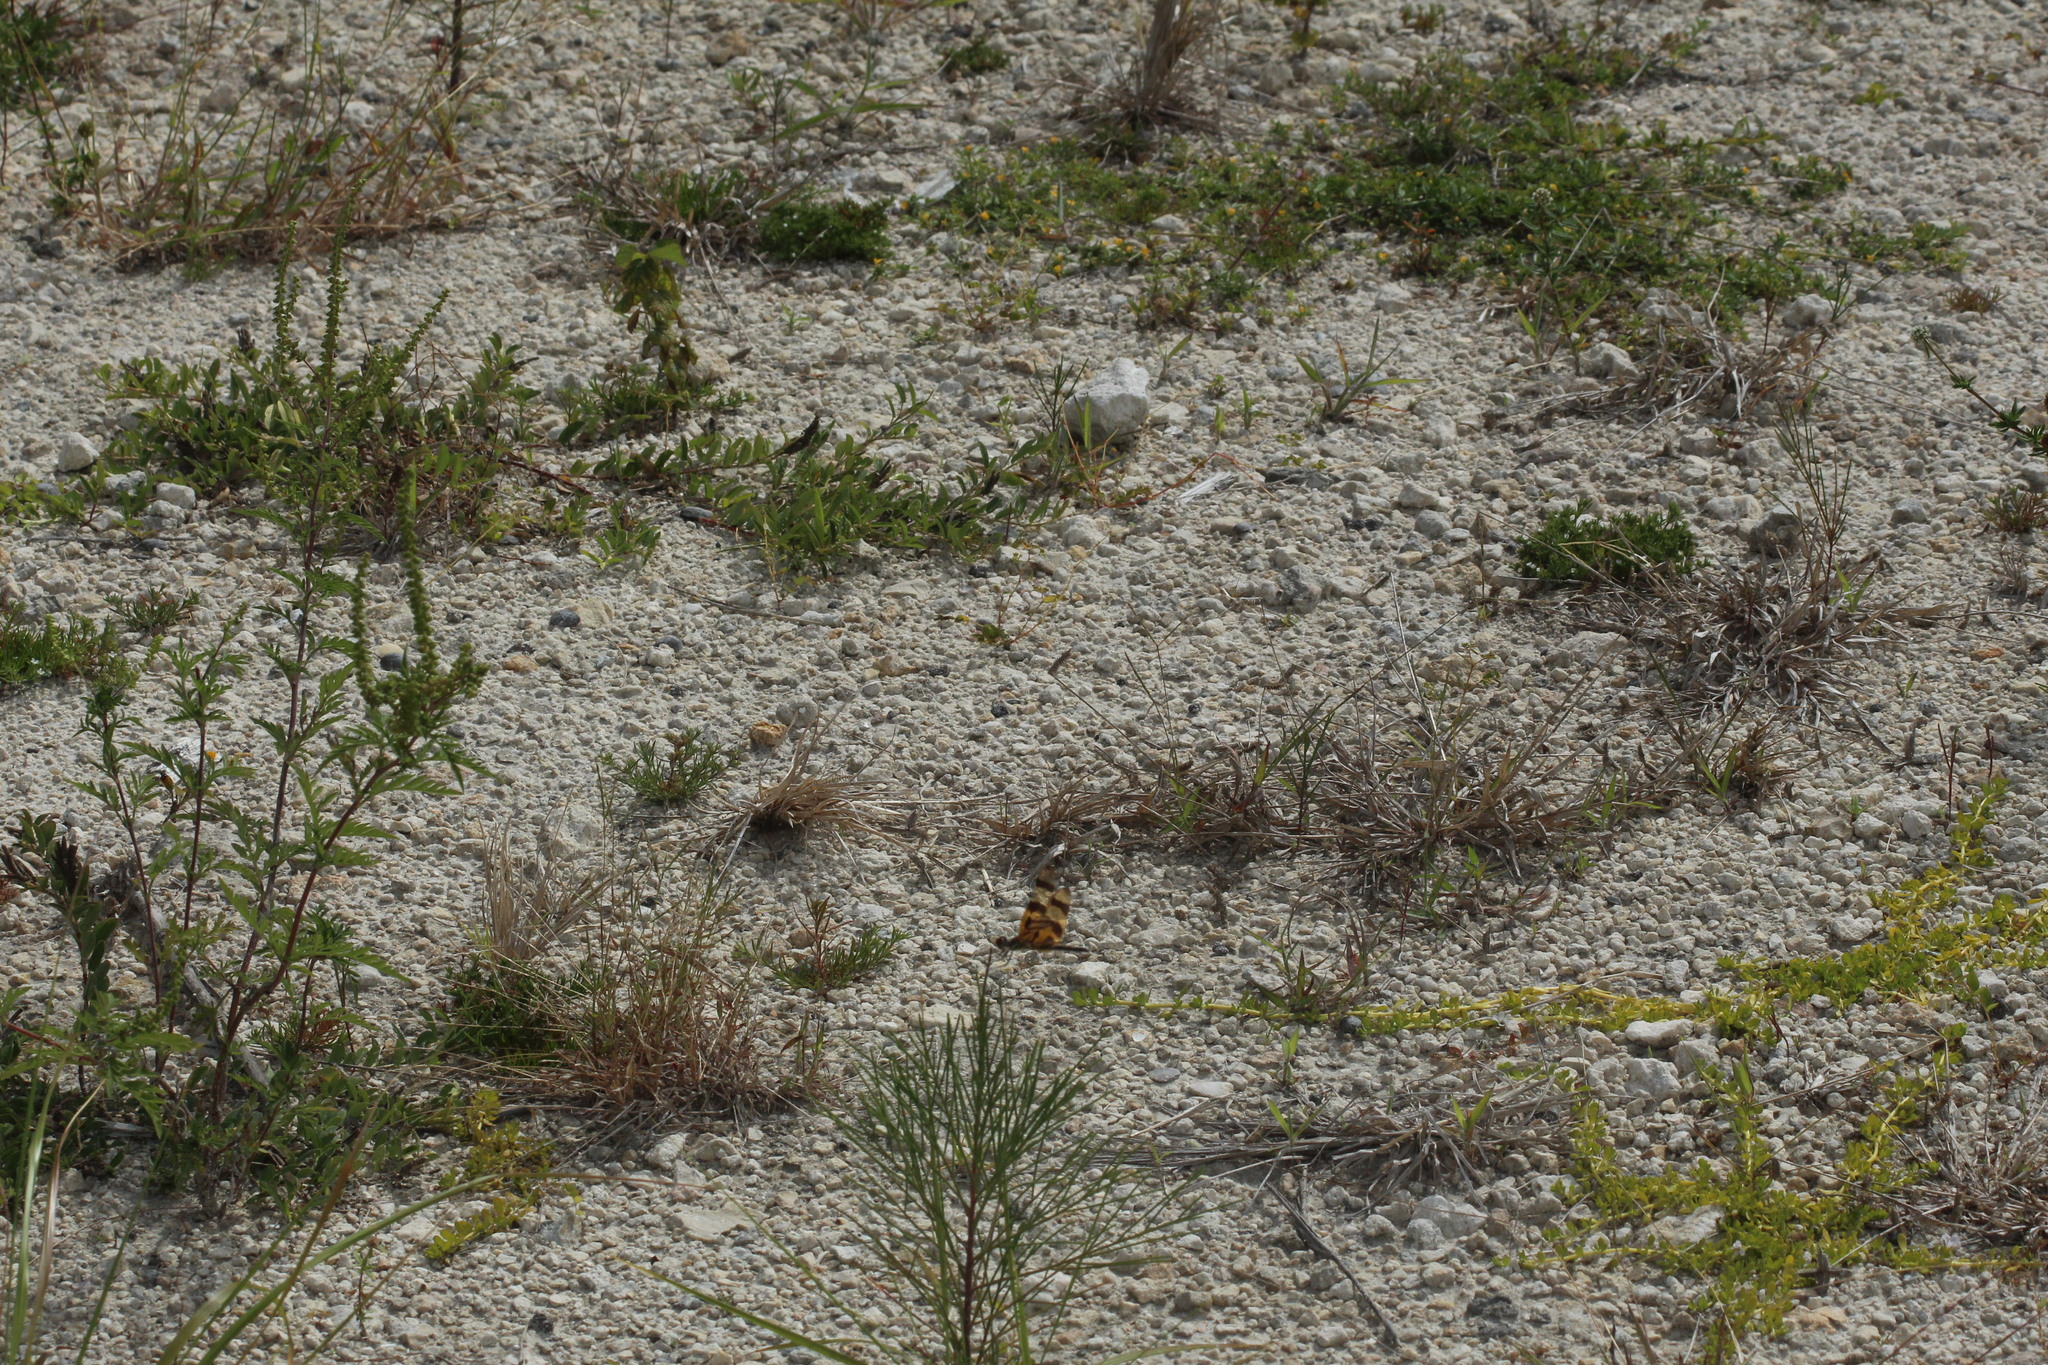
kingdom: Animalia
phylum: Arthropoda
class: Insecta
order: Odonata
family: Libellulidae
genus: Celithemis
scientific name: Celithemis eponina
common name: Halloween pennant
